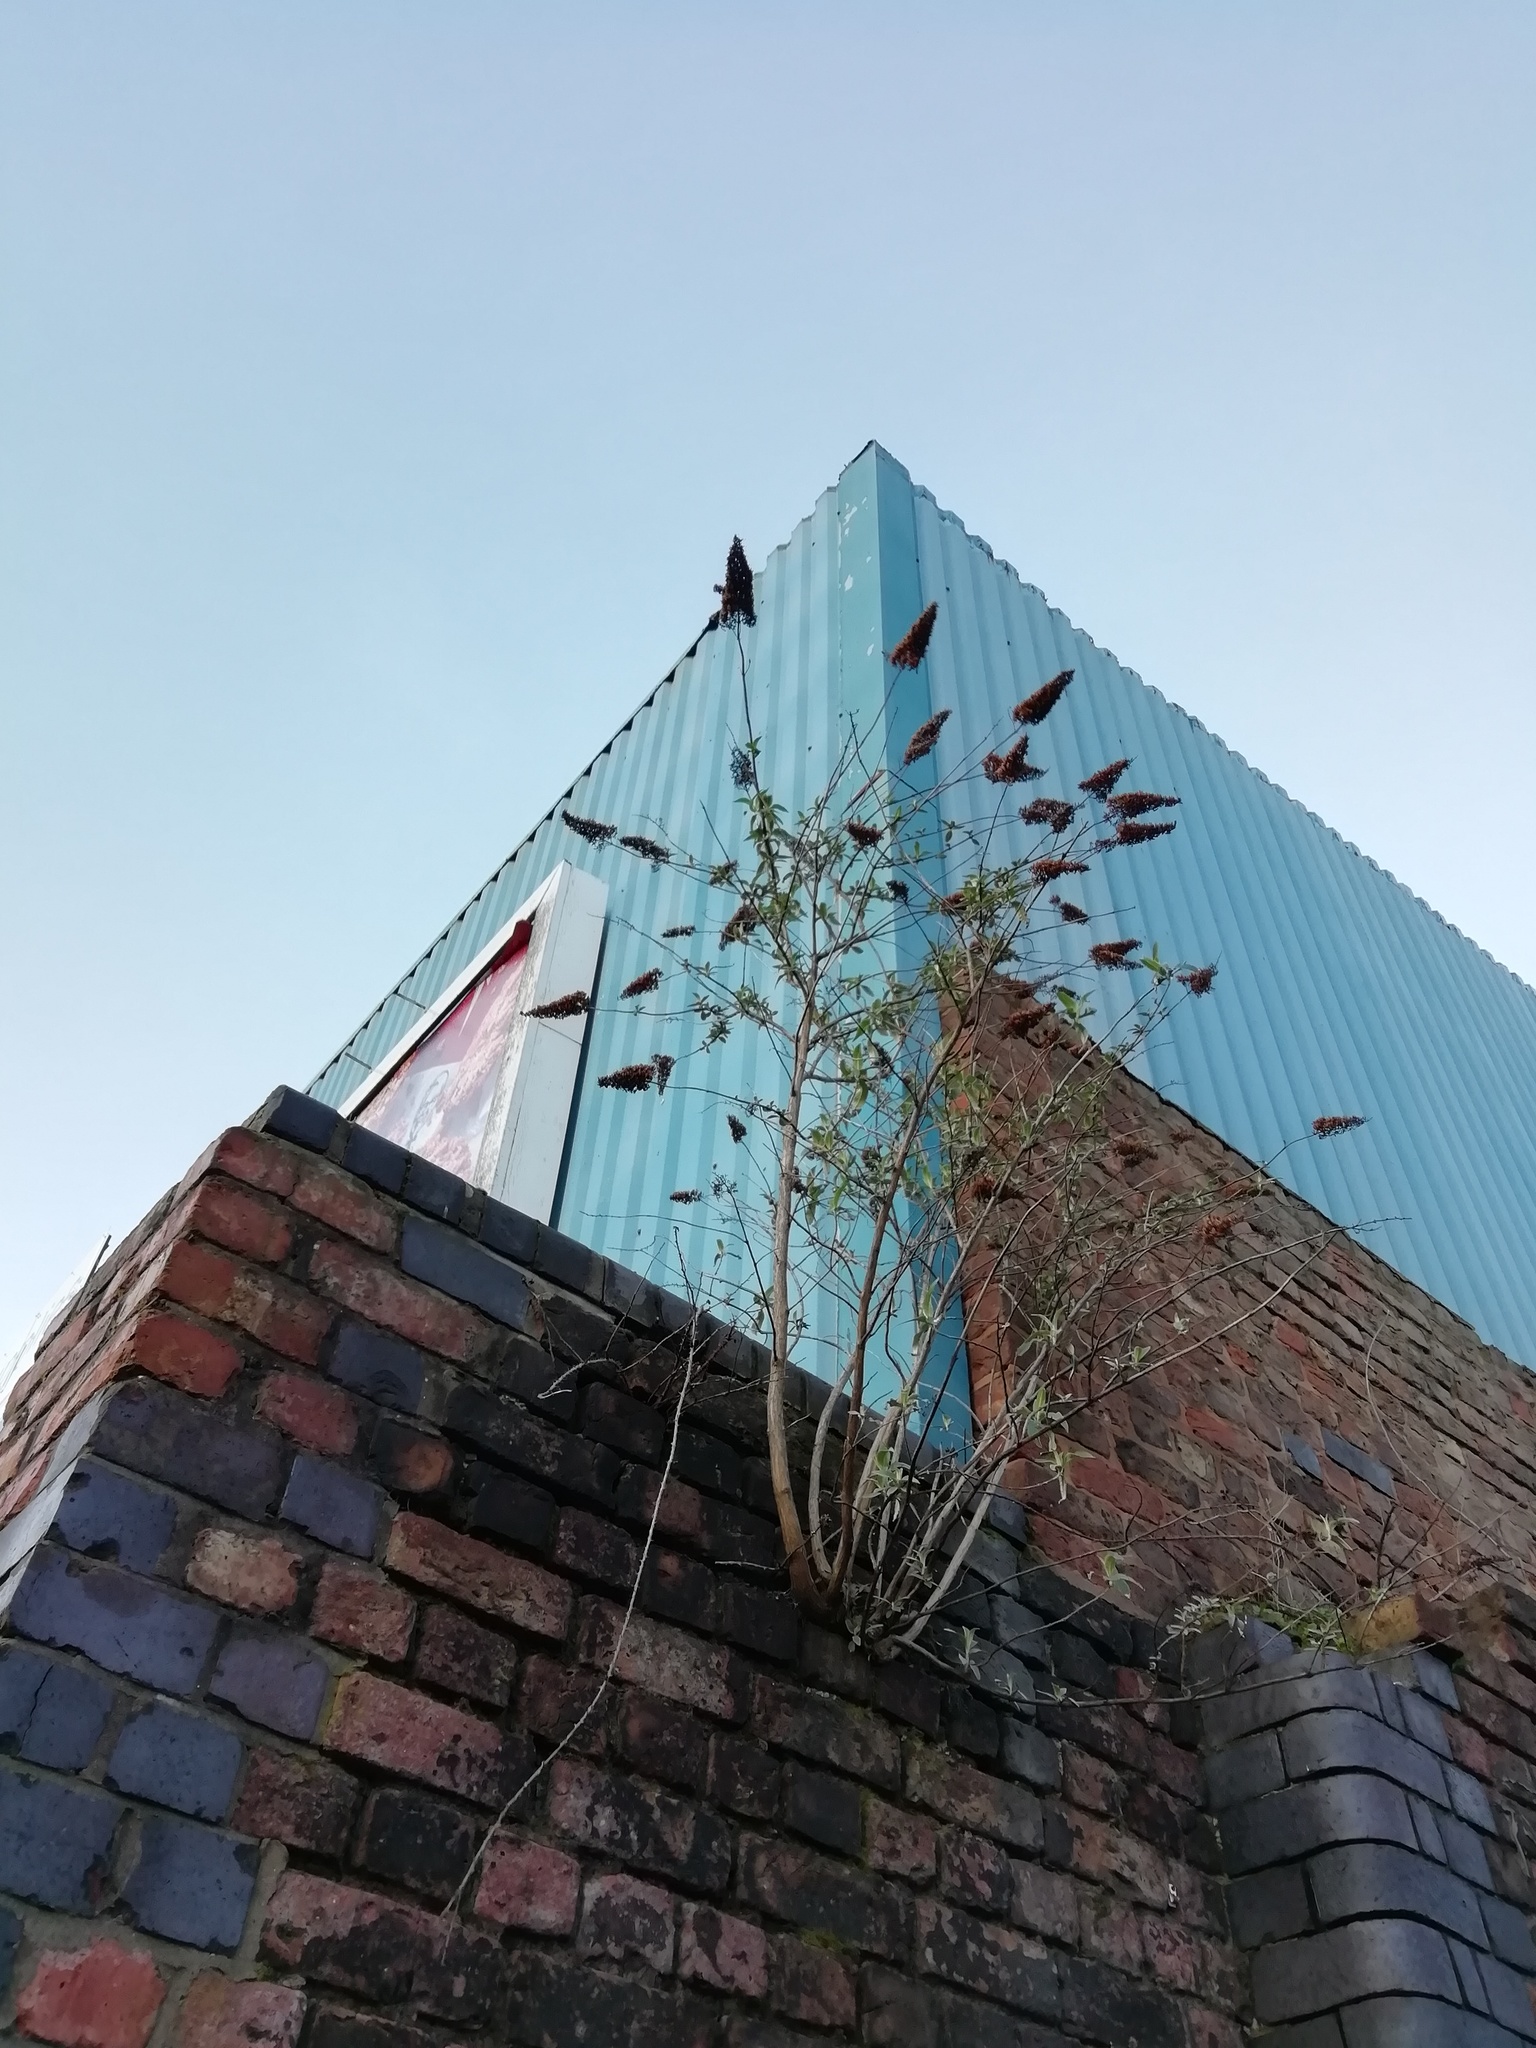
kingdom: Plantae
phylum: Tracheophyta
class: Magnoliopsida
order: Lamiales
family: Scrophulariaceae
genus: Buddleja
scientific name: Buddleja davidii
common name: Butterfly-bush
